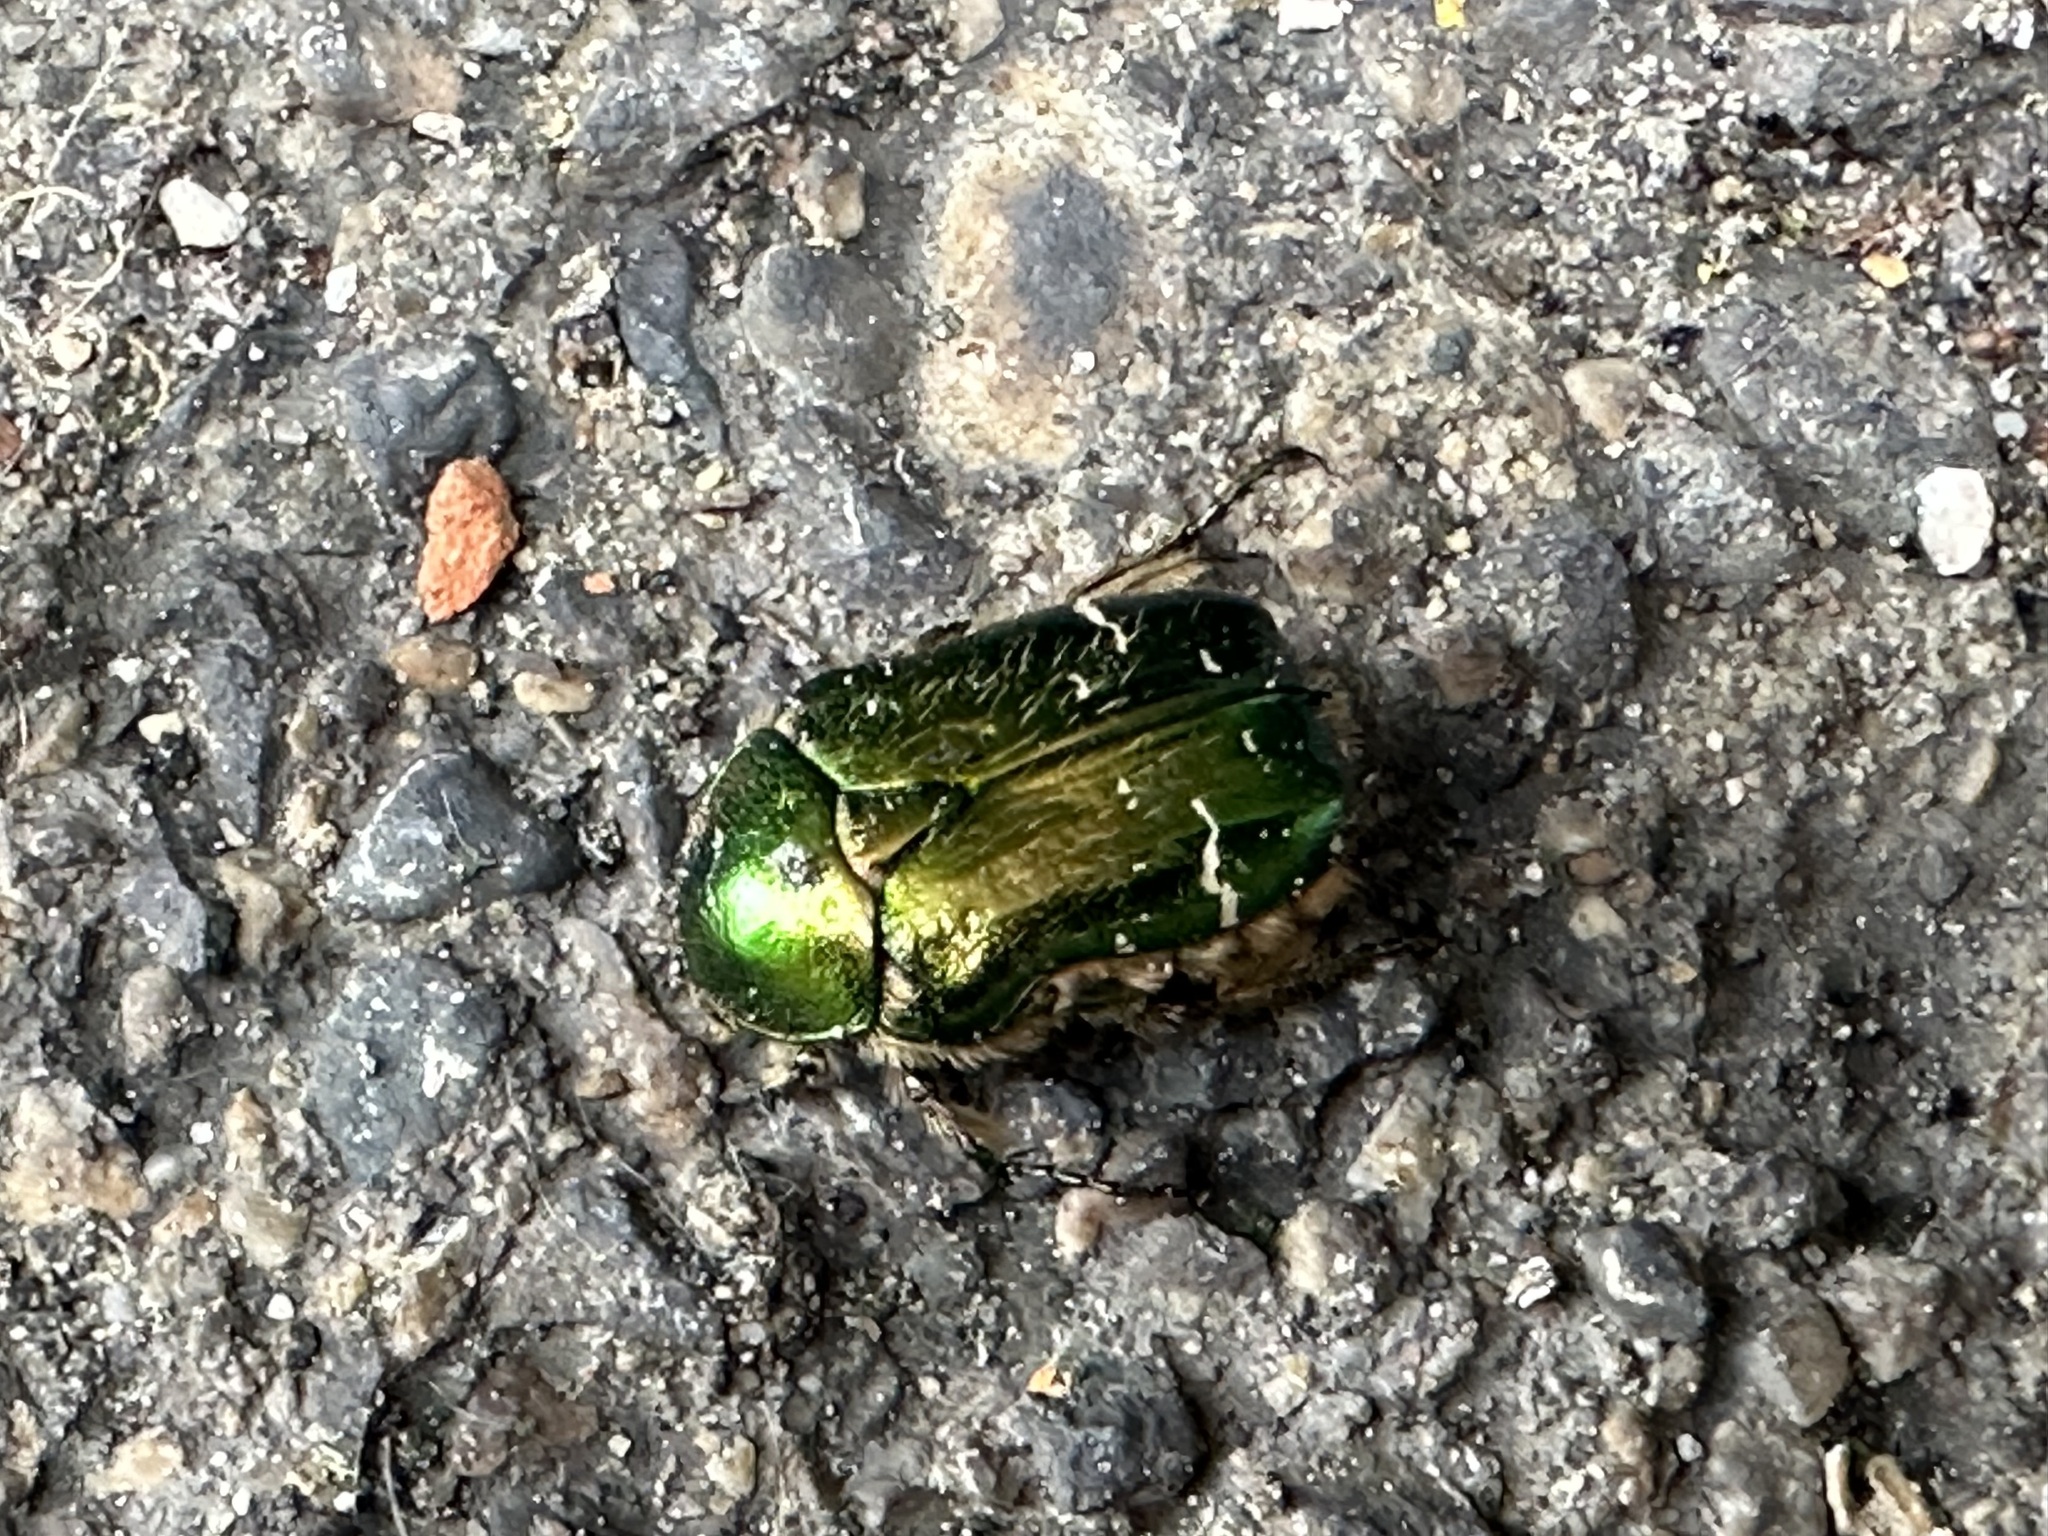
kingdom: Animalia
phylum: Arthropoda
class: Insecta
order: Coleoptera
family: Scarabaeidae
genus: Cetonia
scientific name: Cetonia aurata
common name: Rose chafer
